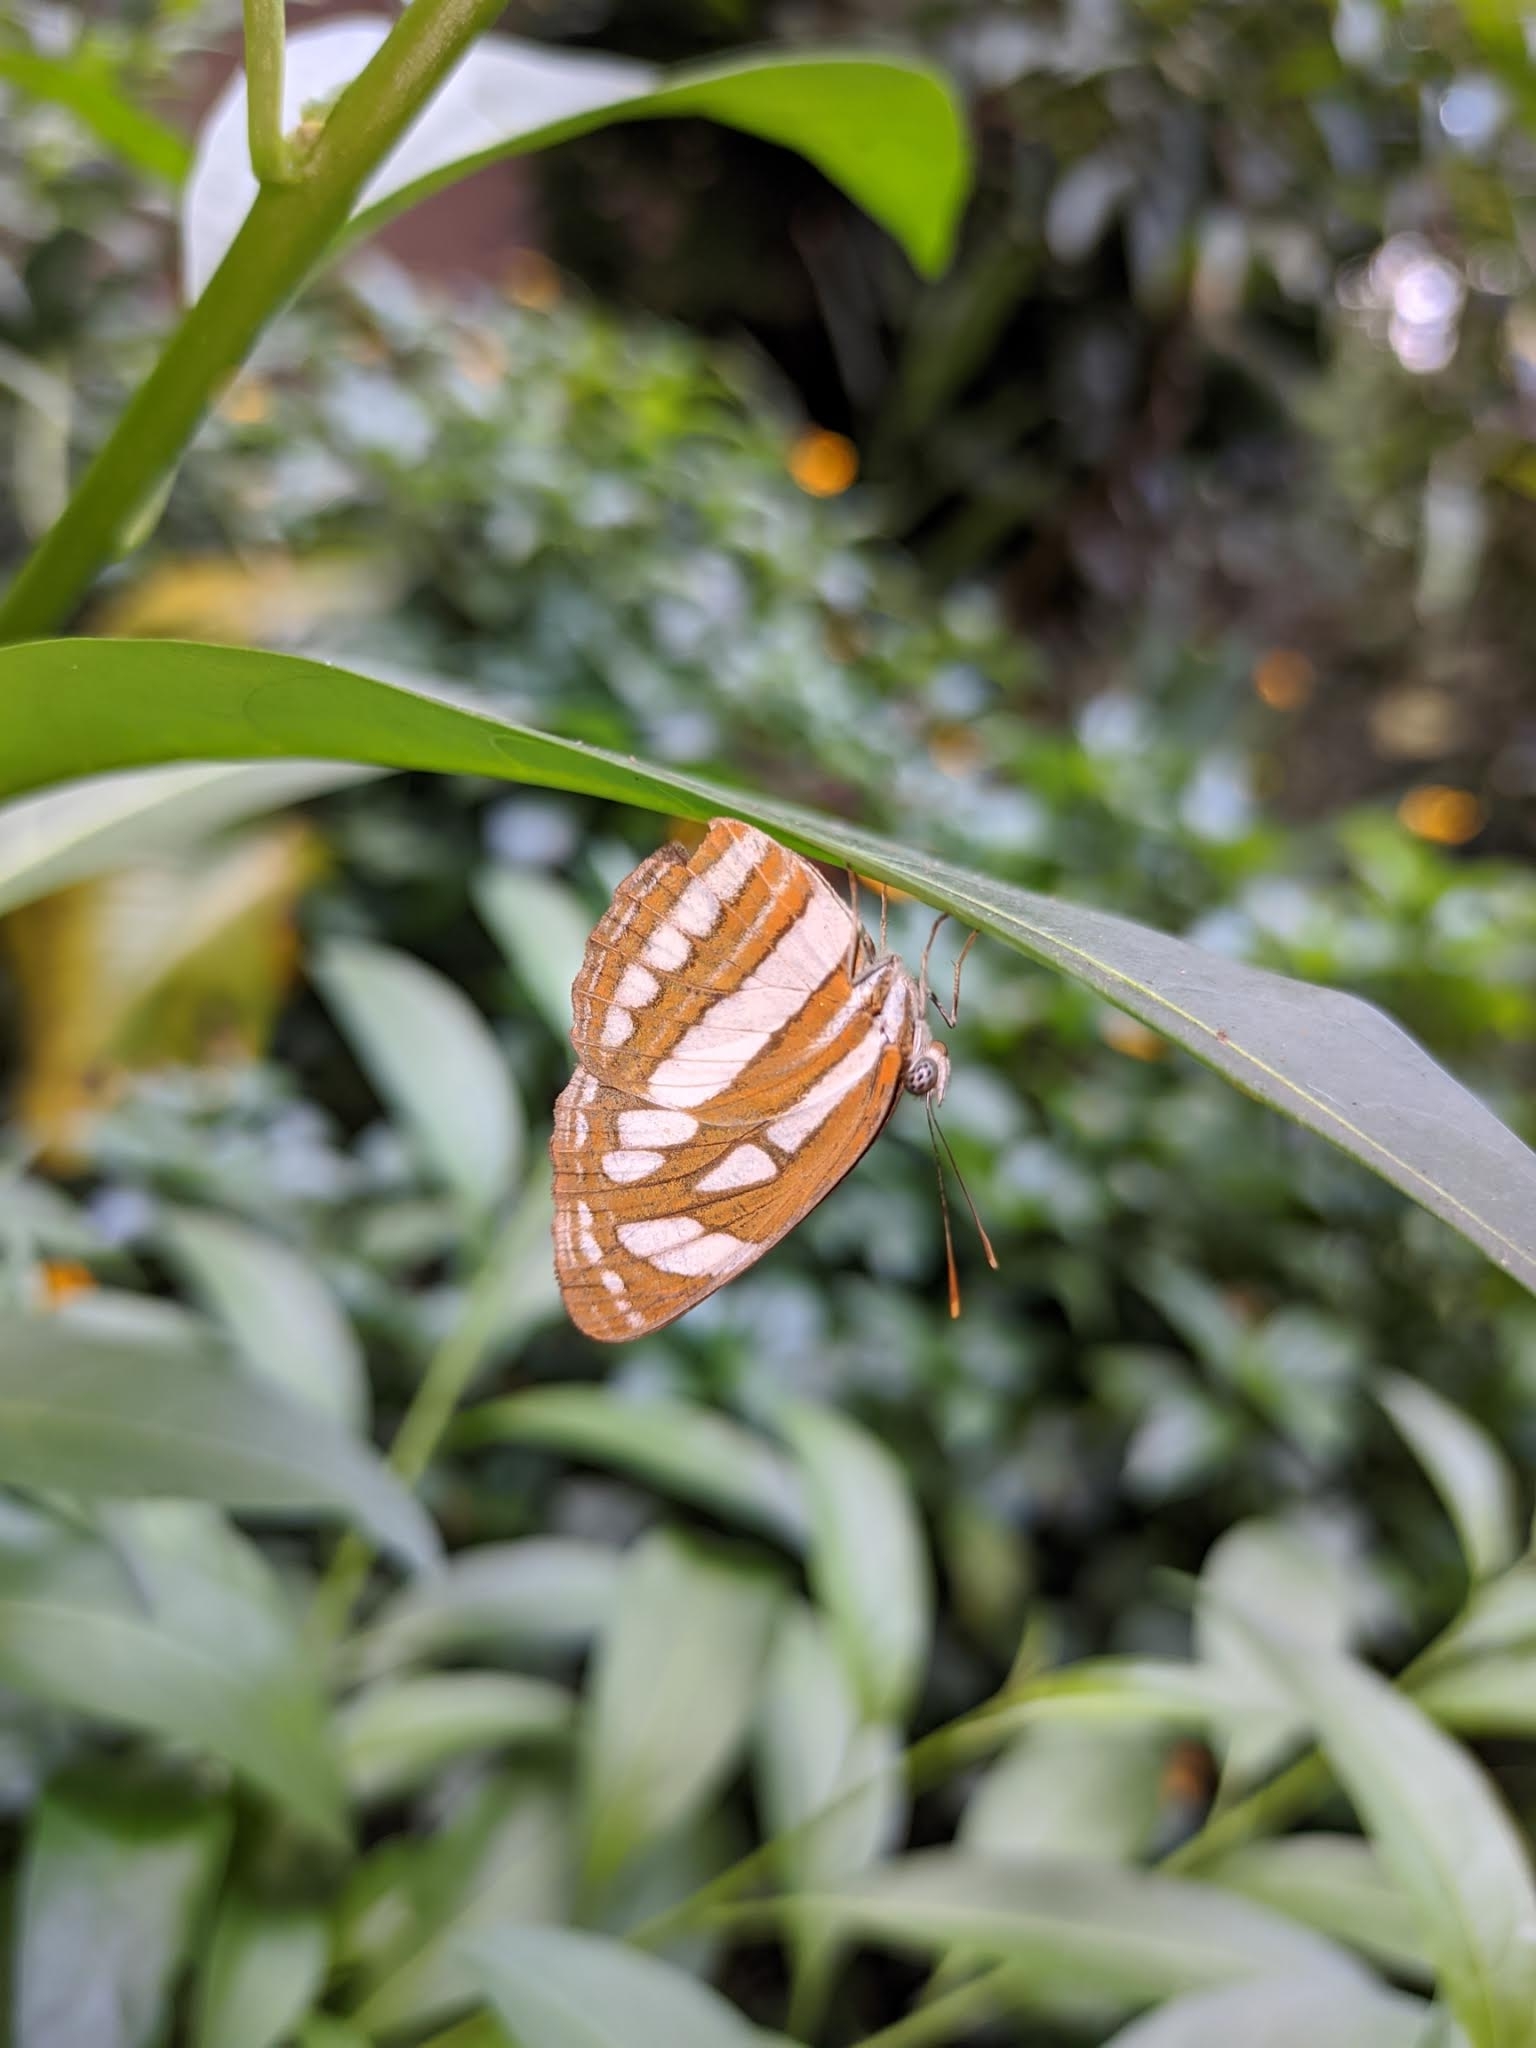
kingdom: Animalia
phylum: Arthropoda
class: Insecta
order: Lepidoptera
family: Nymphalidae
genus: Neptis
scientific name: Neptis hylas
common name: Common sailer
